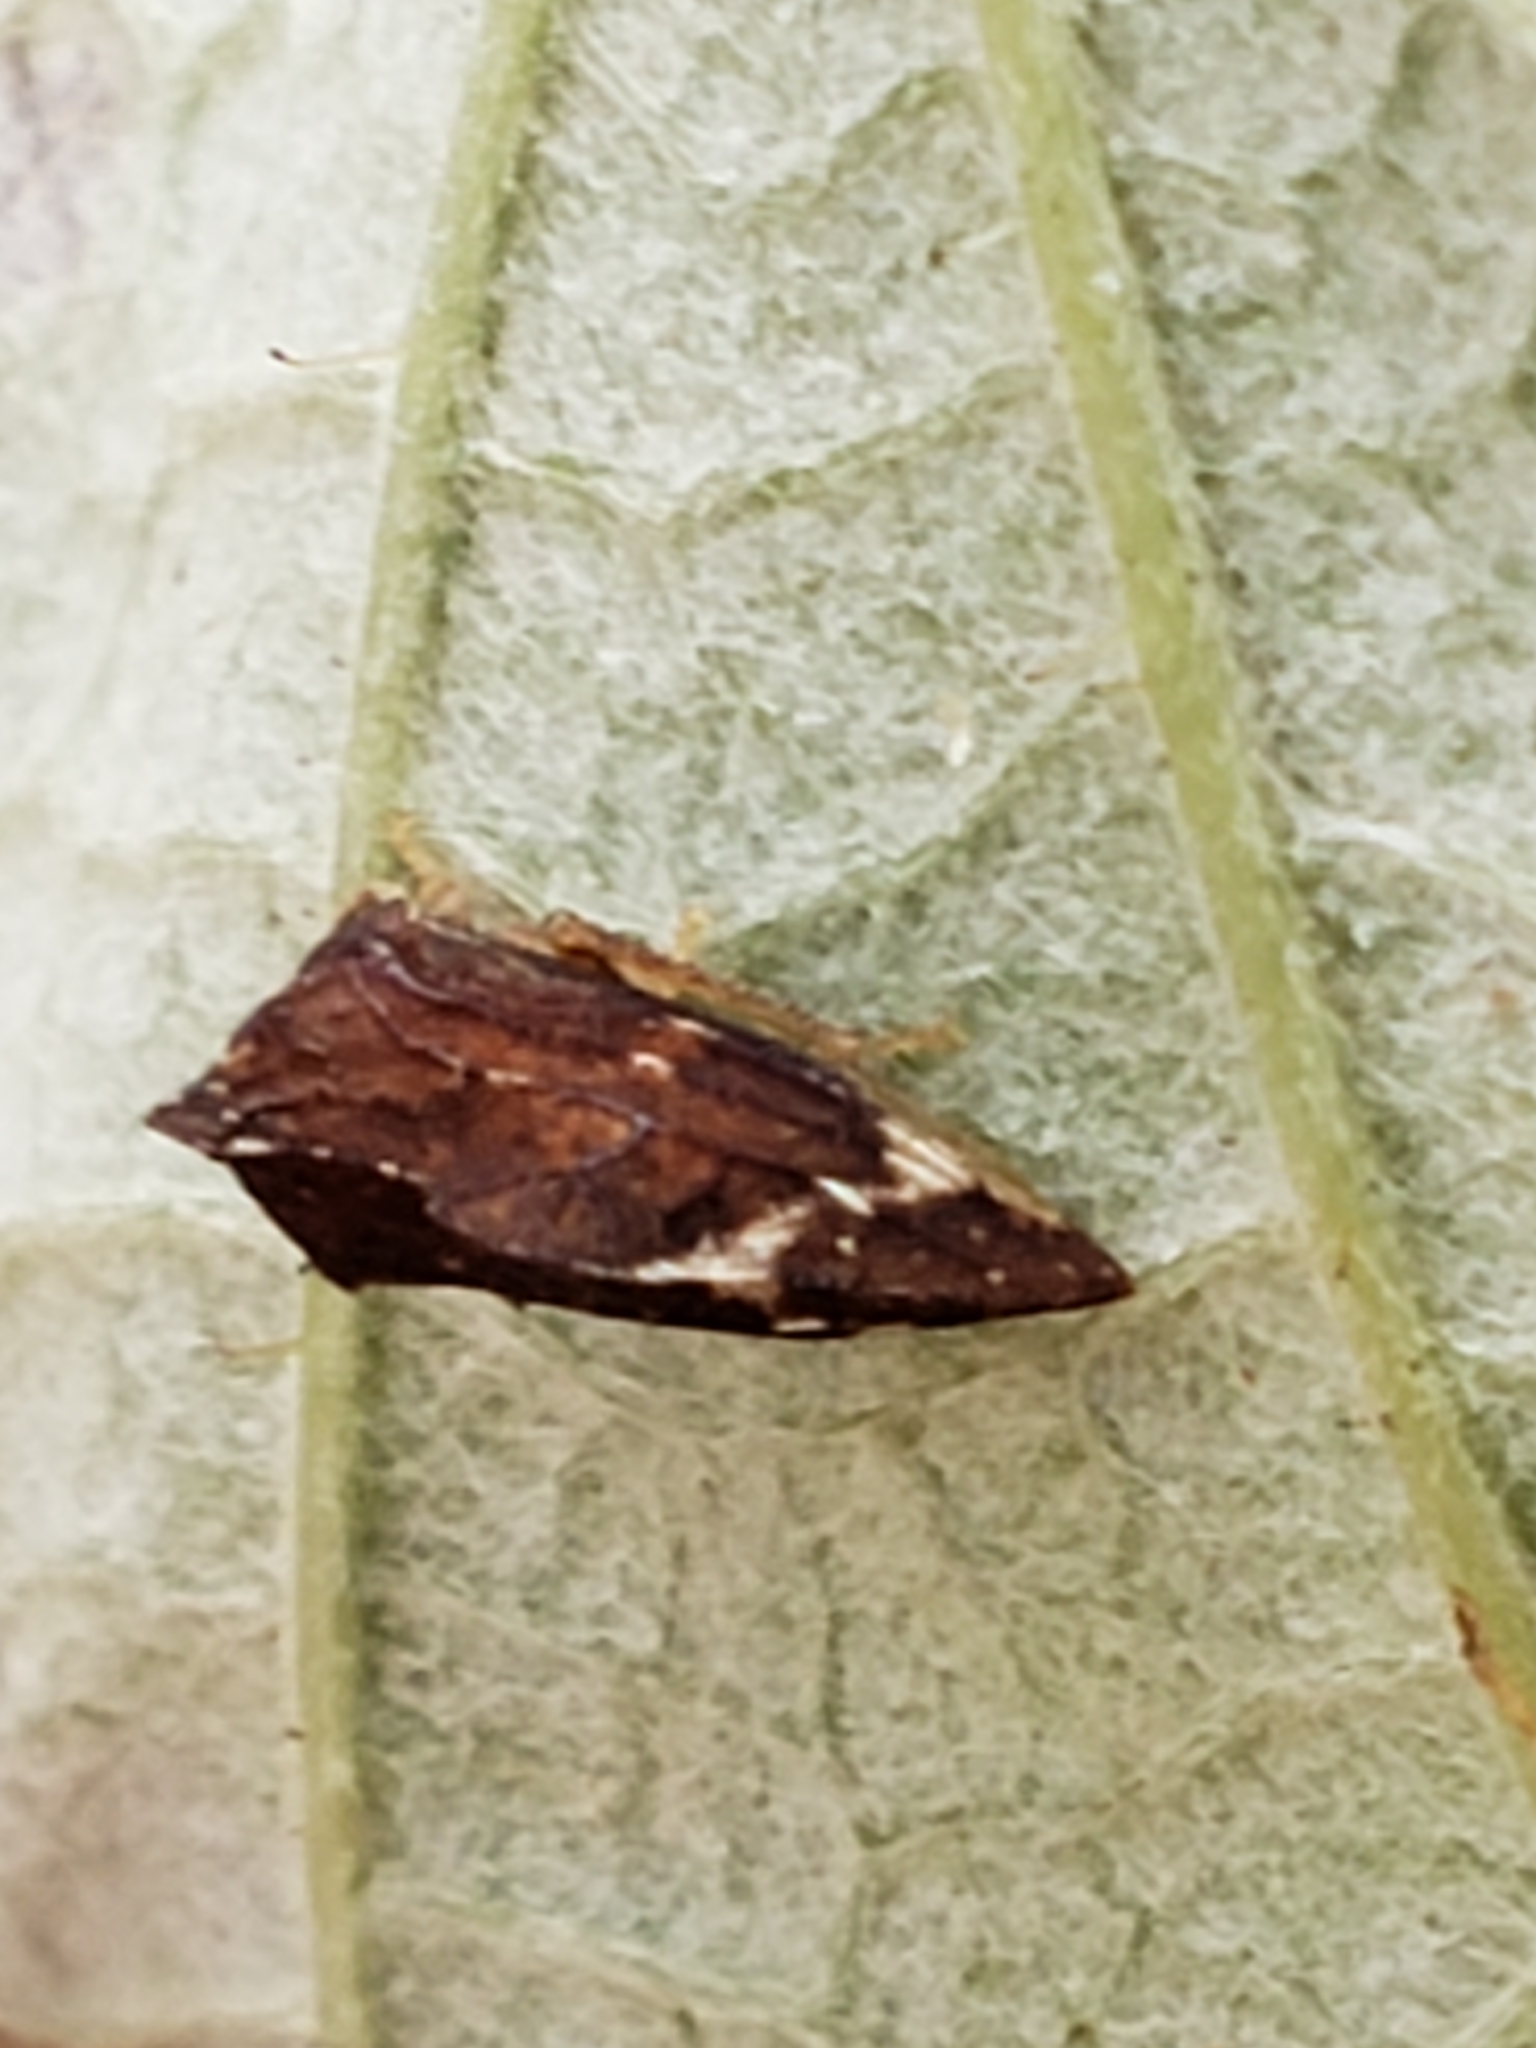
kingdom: Animalia
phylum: Arthropoda
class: Insecta
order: Hemiptera
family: Membracidae
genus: Entylia
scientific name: Entylia carinata
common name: Keeled treehopper
